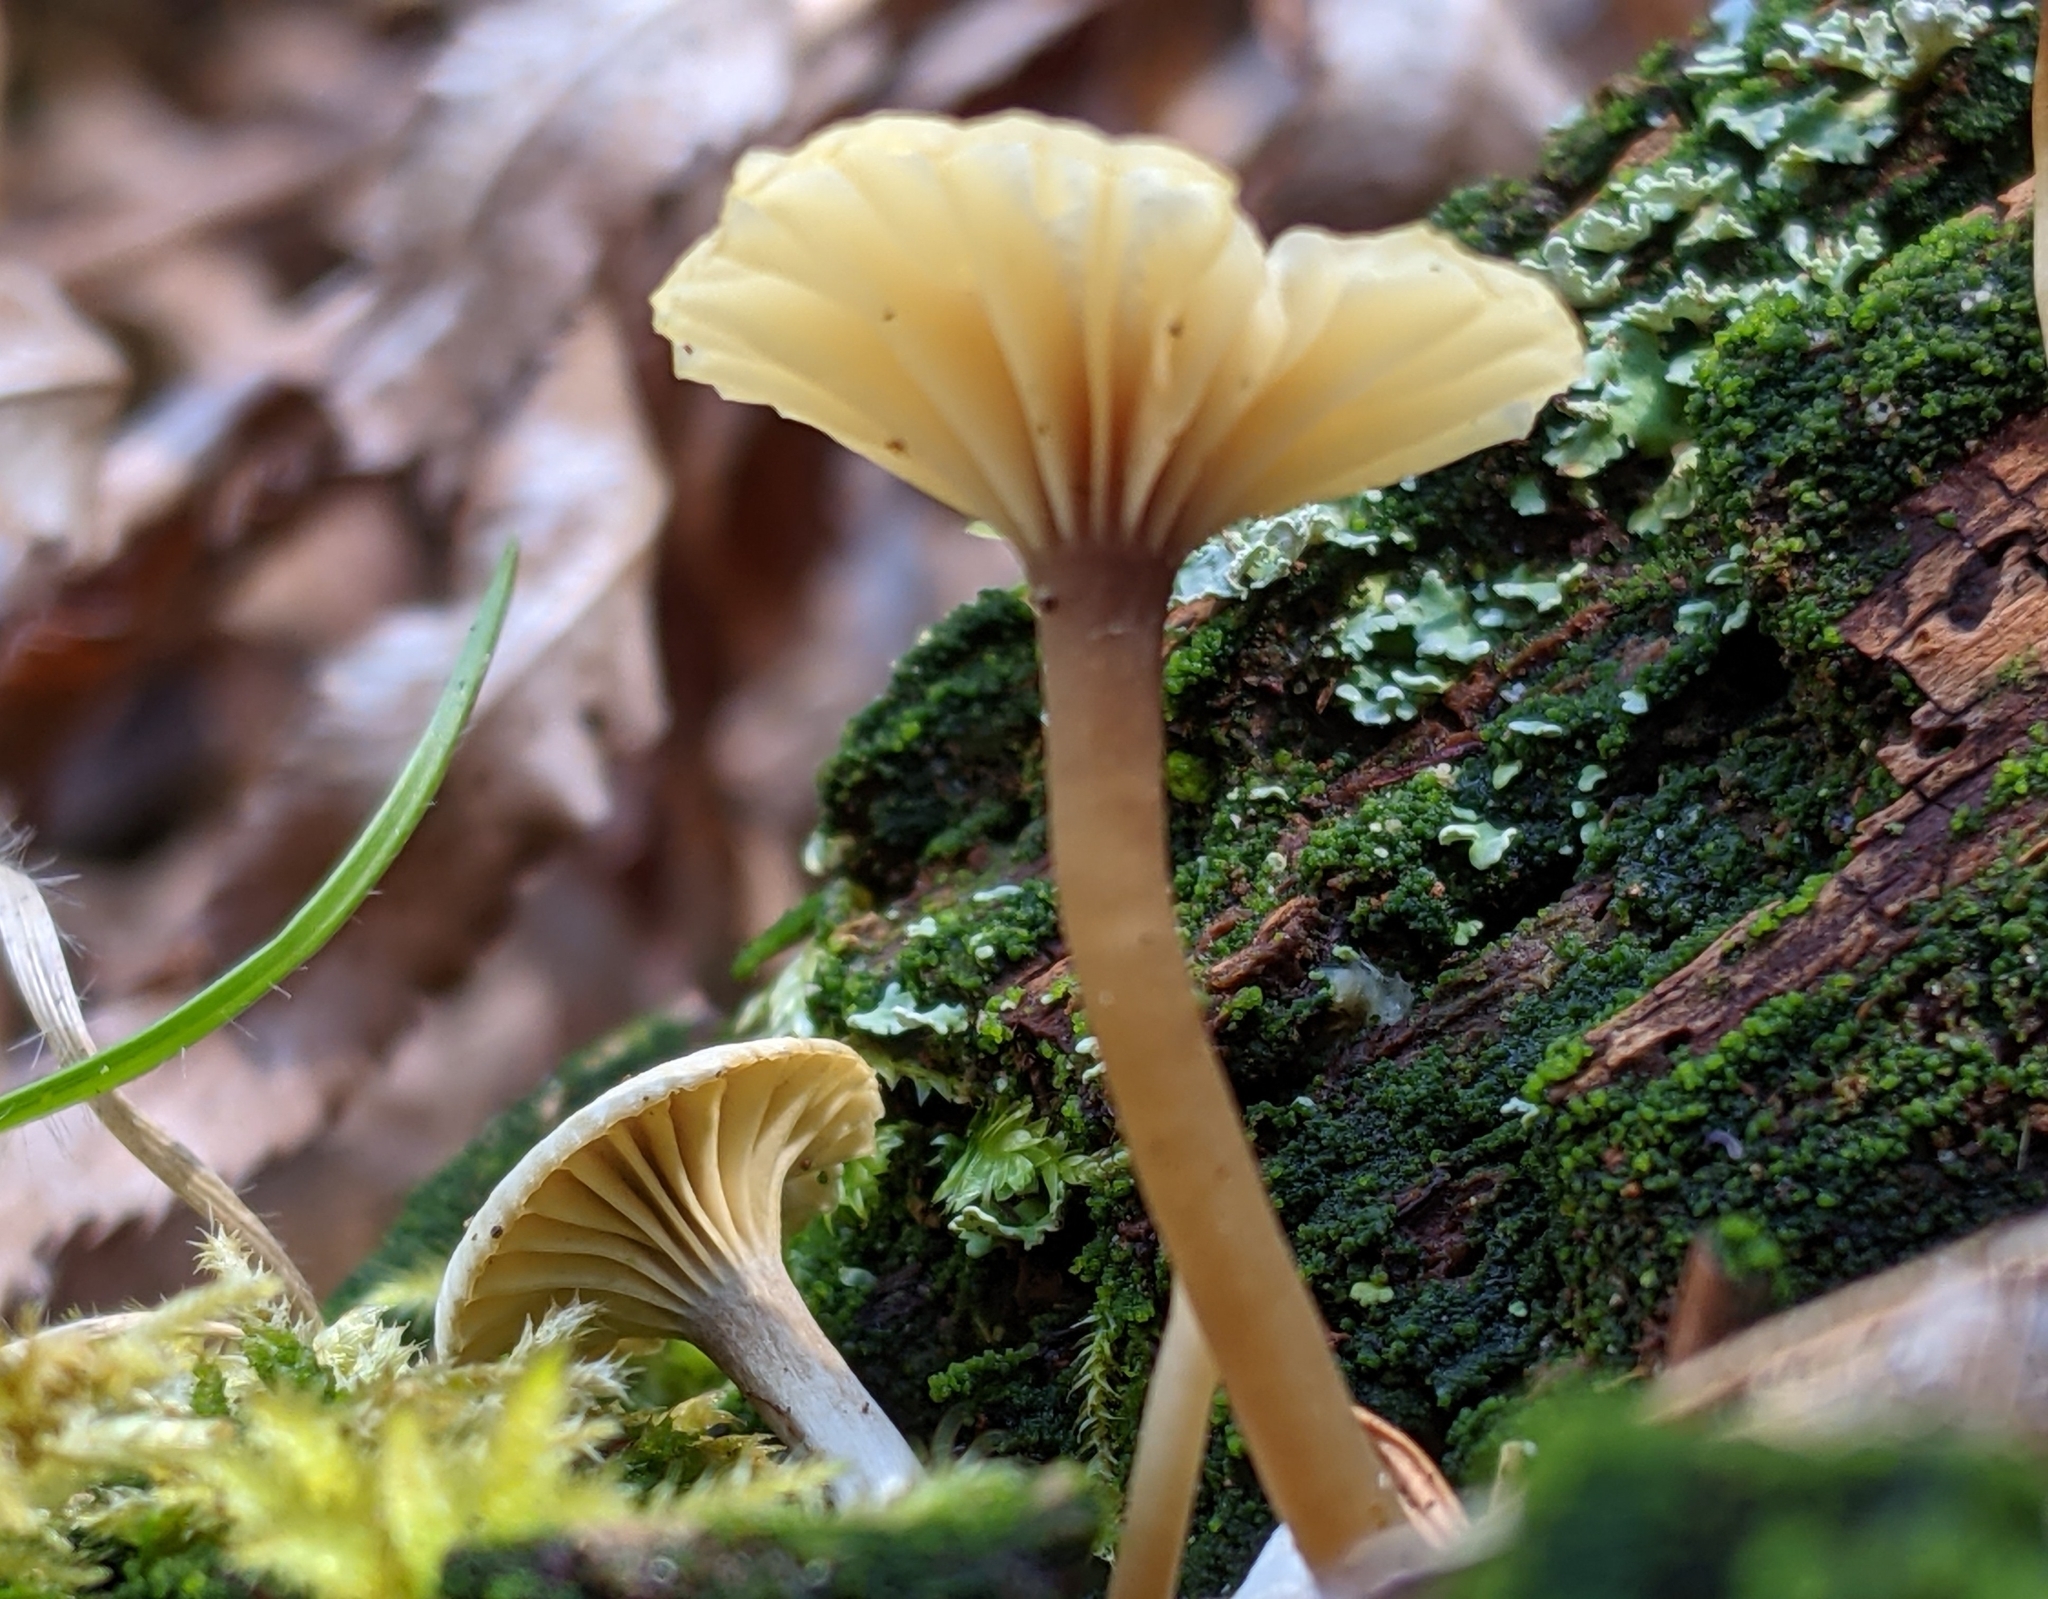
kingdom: Fungi
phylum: Basidiomycota
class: Agaricomycetes
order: Agaricales
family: Hygrophoraceae
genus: Lichenomphalia
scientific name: Lichenomphalia
